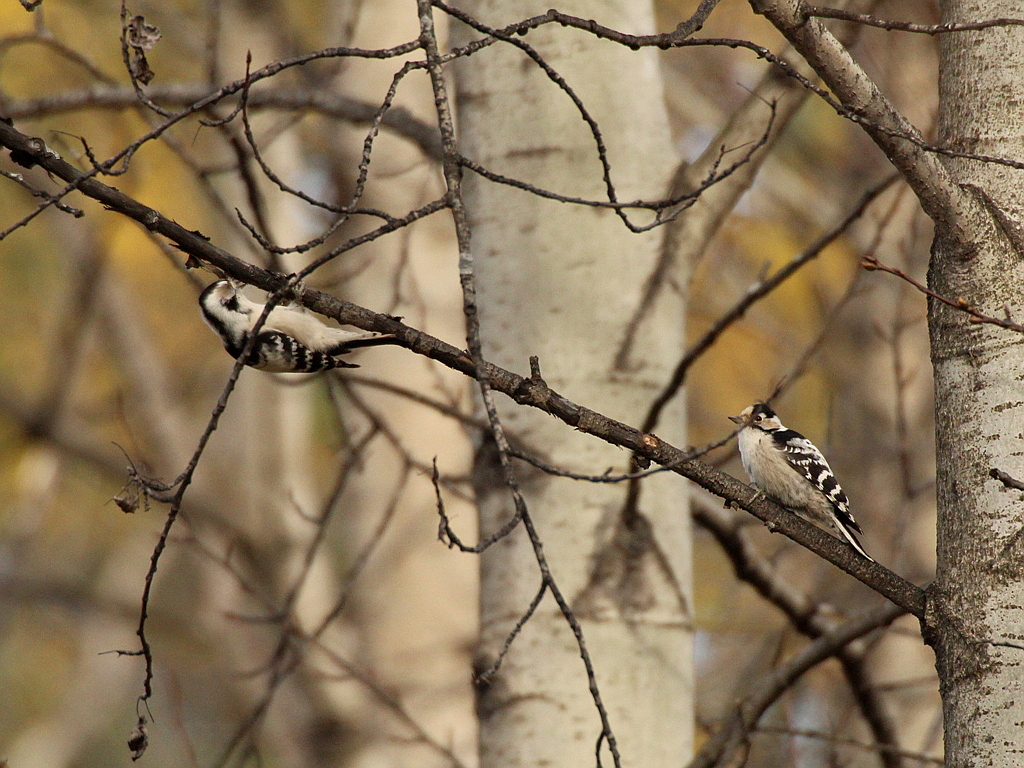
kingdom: Animalia
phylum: Chordata
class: Aves
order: Piciformes
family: Picidae
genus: Dryobates
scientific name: Dryobates minor
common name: Lesser spotted woodpecker
